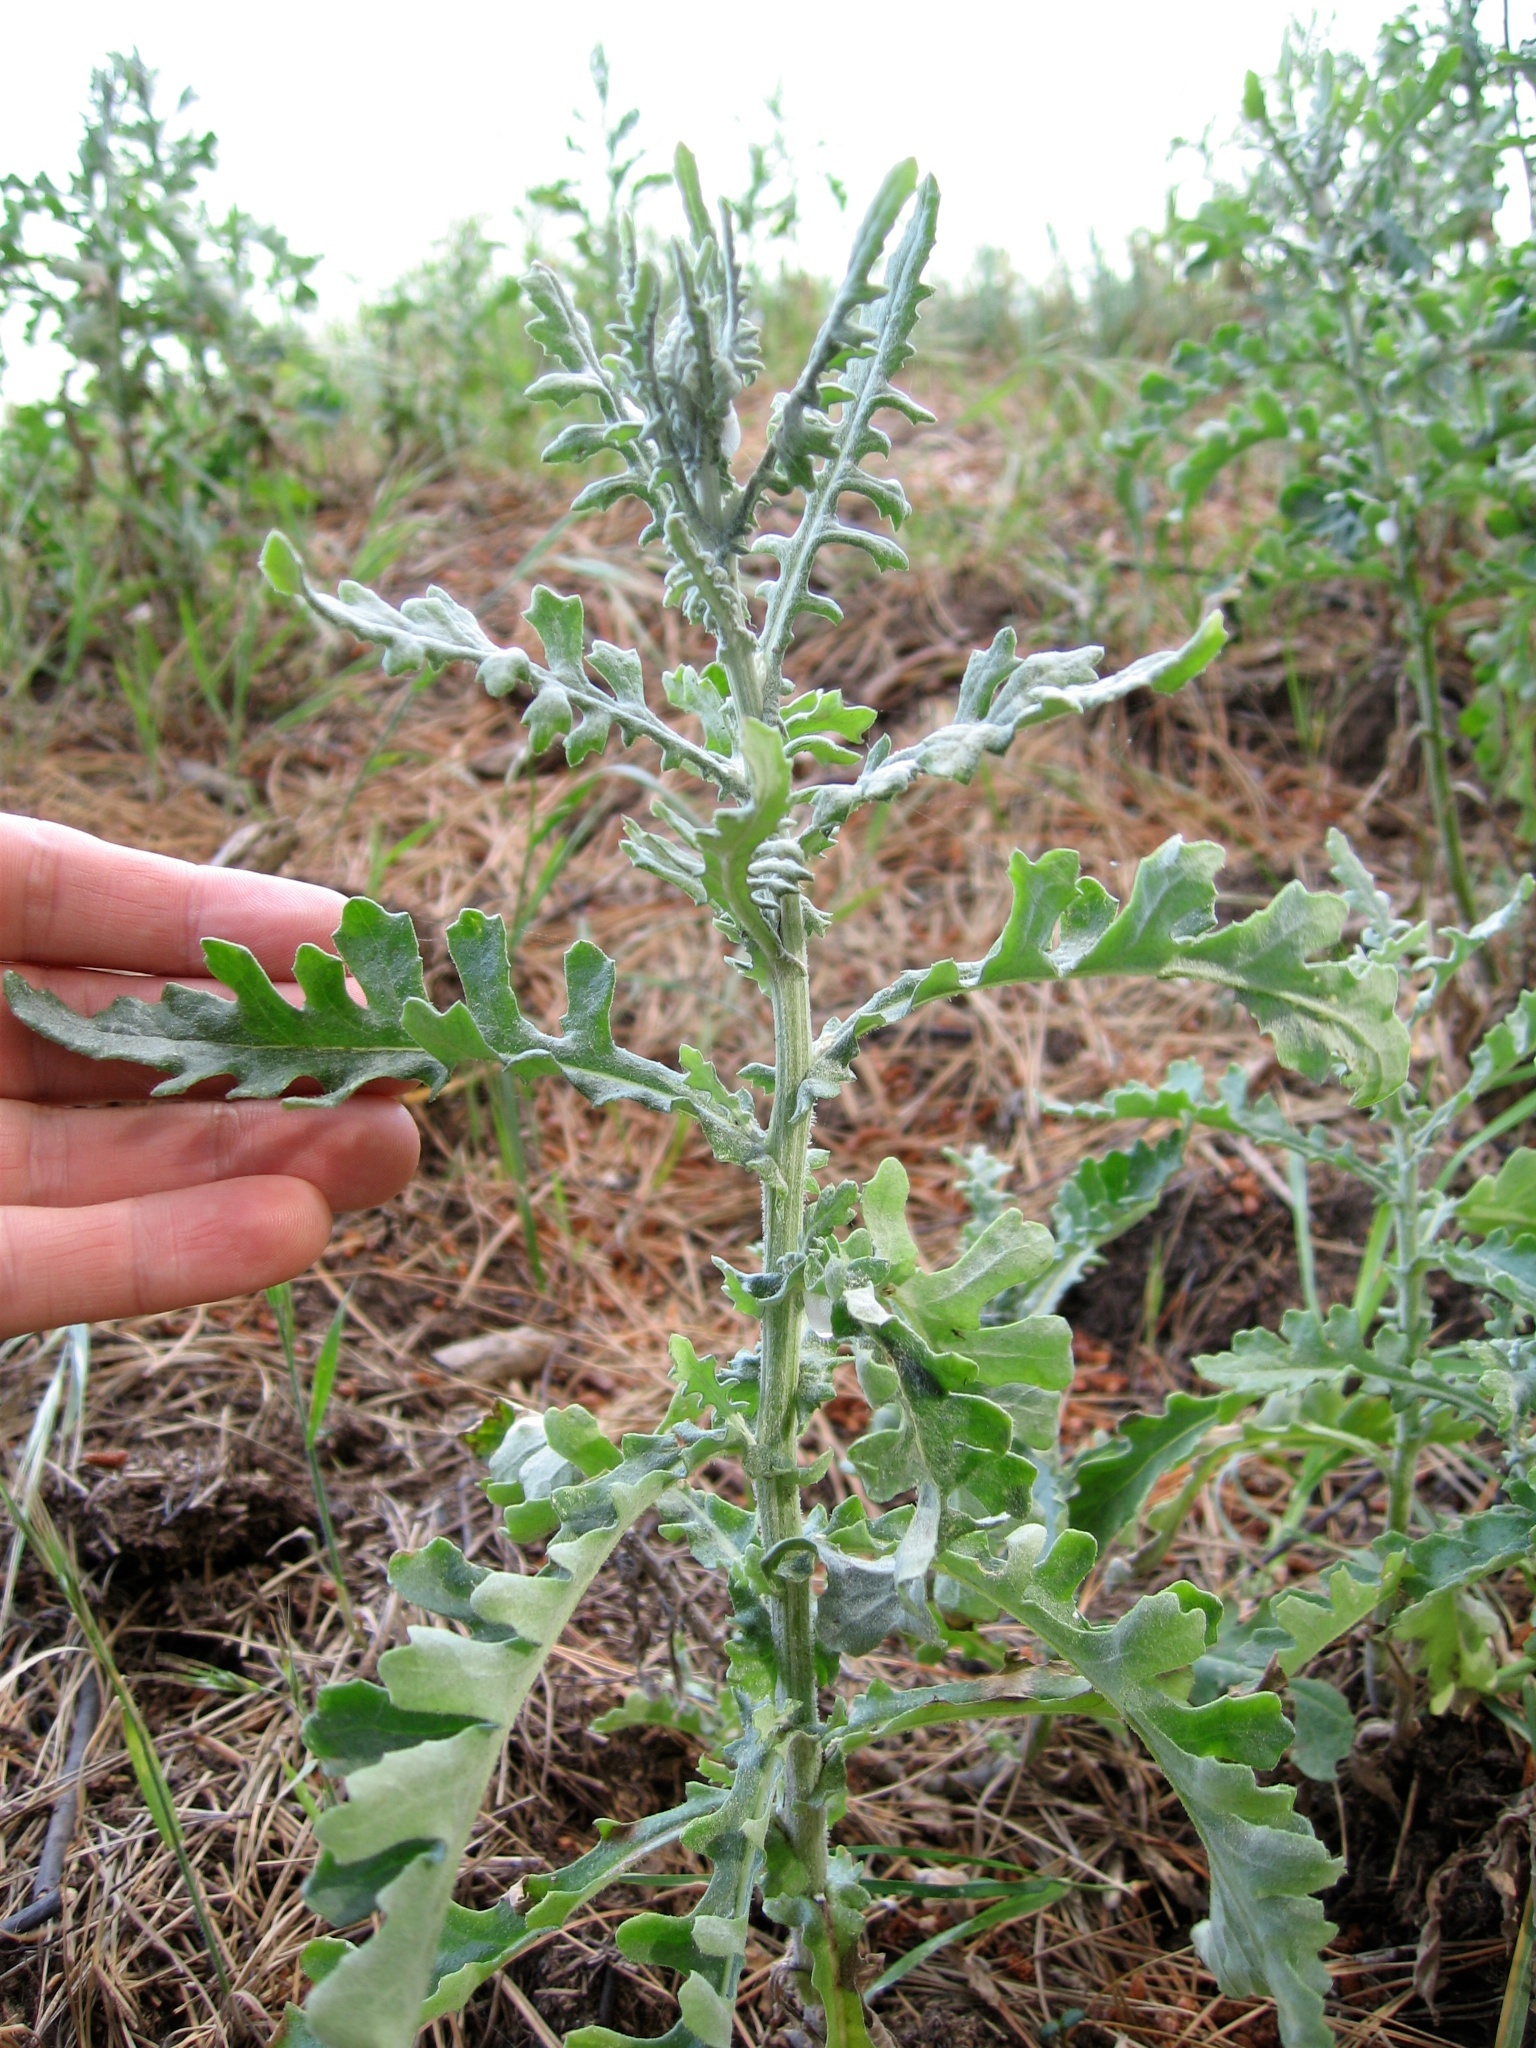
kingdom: Plantae
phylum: Tracheophyta
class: Magnoliopsida
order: Asterales
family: Asteraceae
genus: Senecio
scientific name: Senecio glomeratus
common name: Cutleaf burnweed
